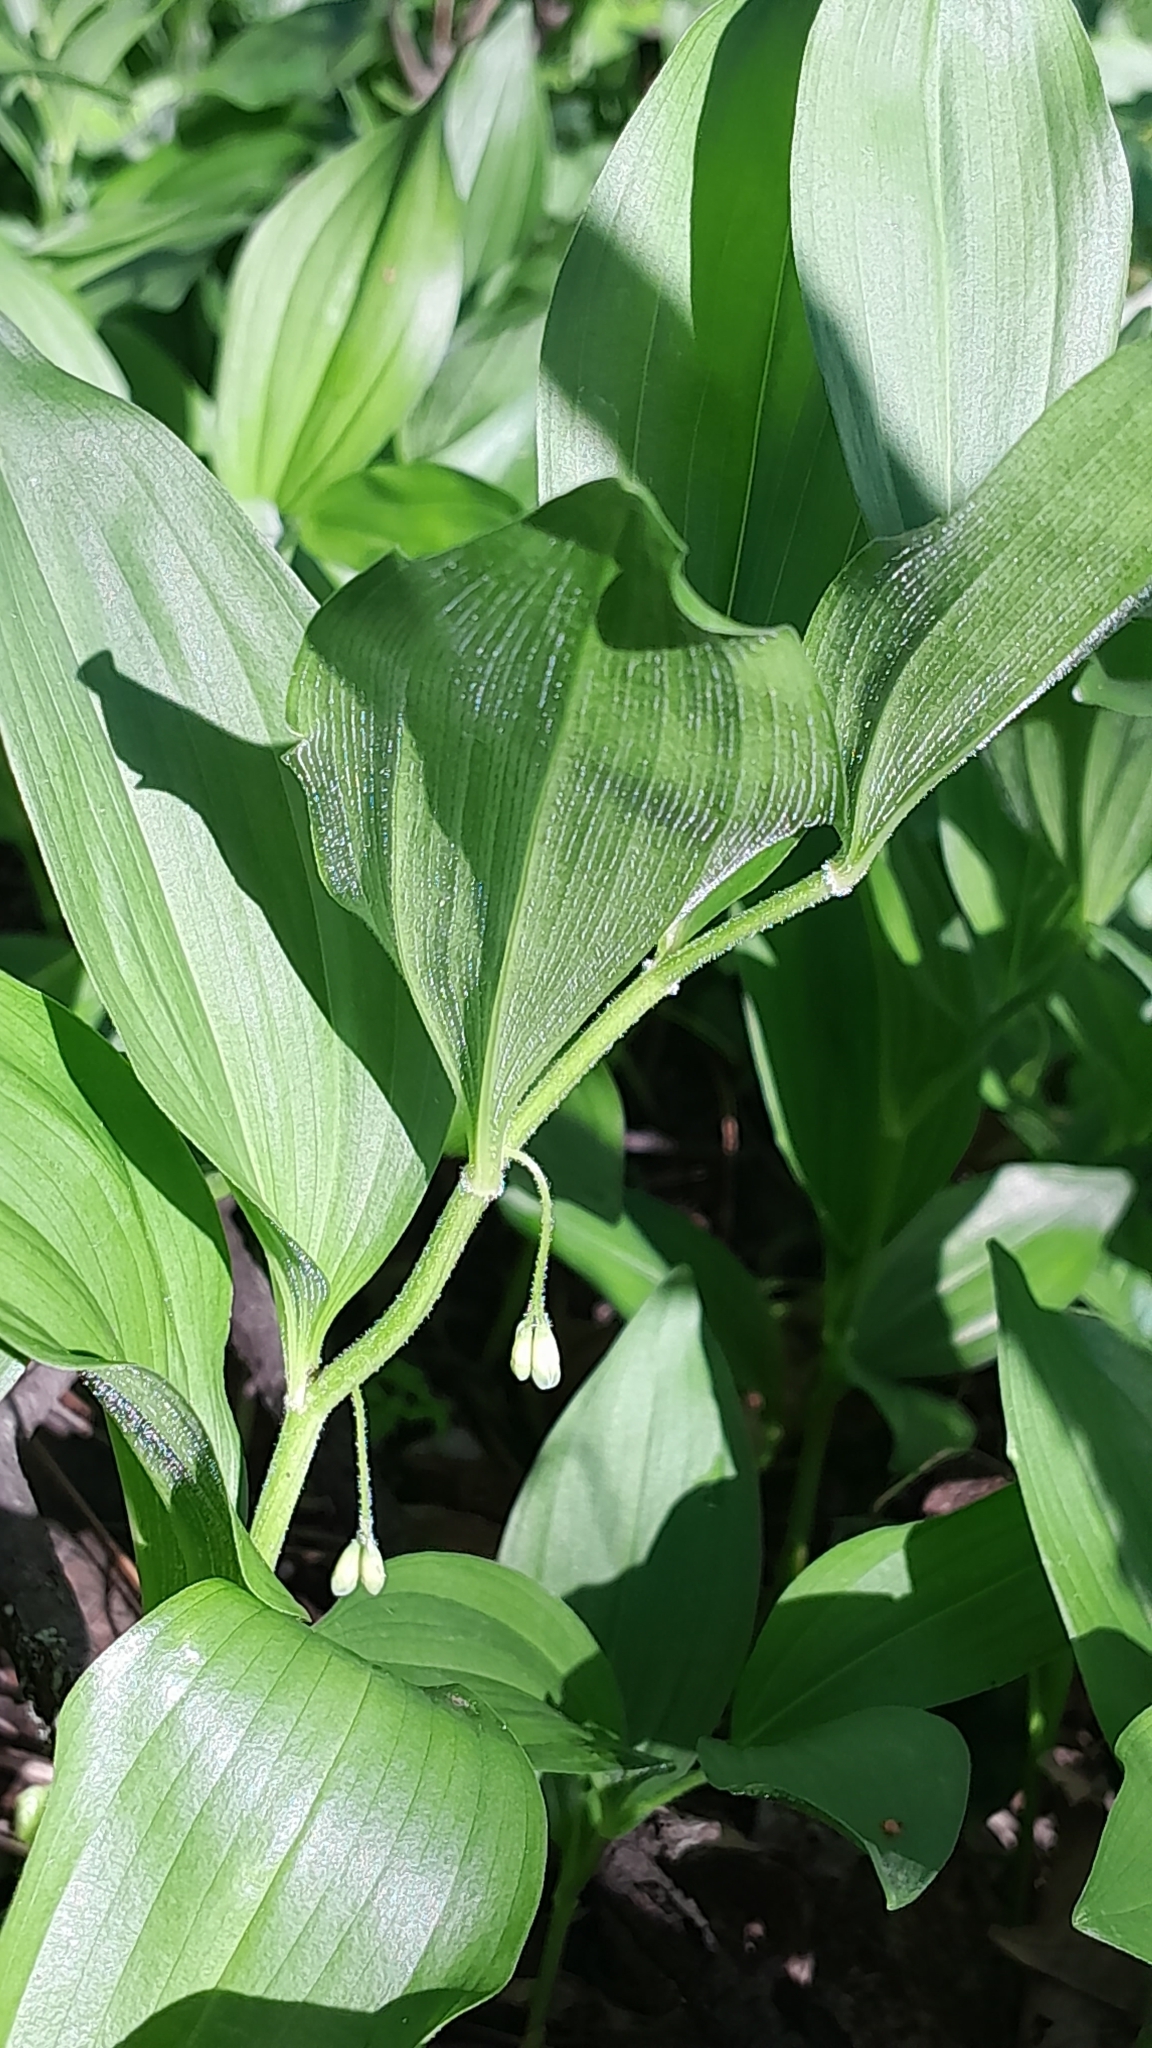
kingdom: Plantae
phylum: Tracheophyta
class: Liliopsida
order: Asparagales
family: Asparagaceae
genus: Polygonatum
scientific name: Polygonatum latifolium
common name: Broadleaf solomon's seal
